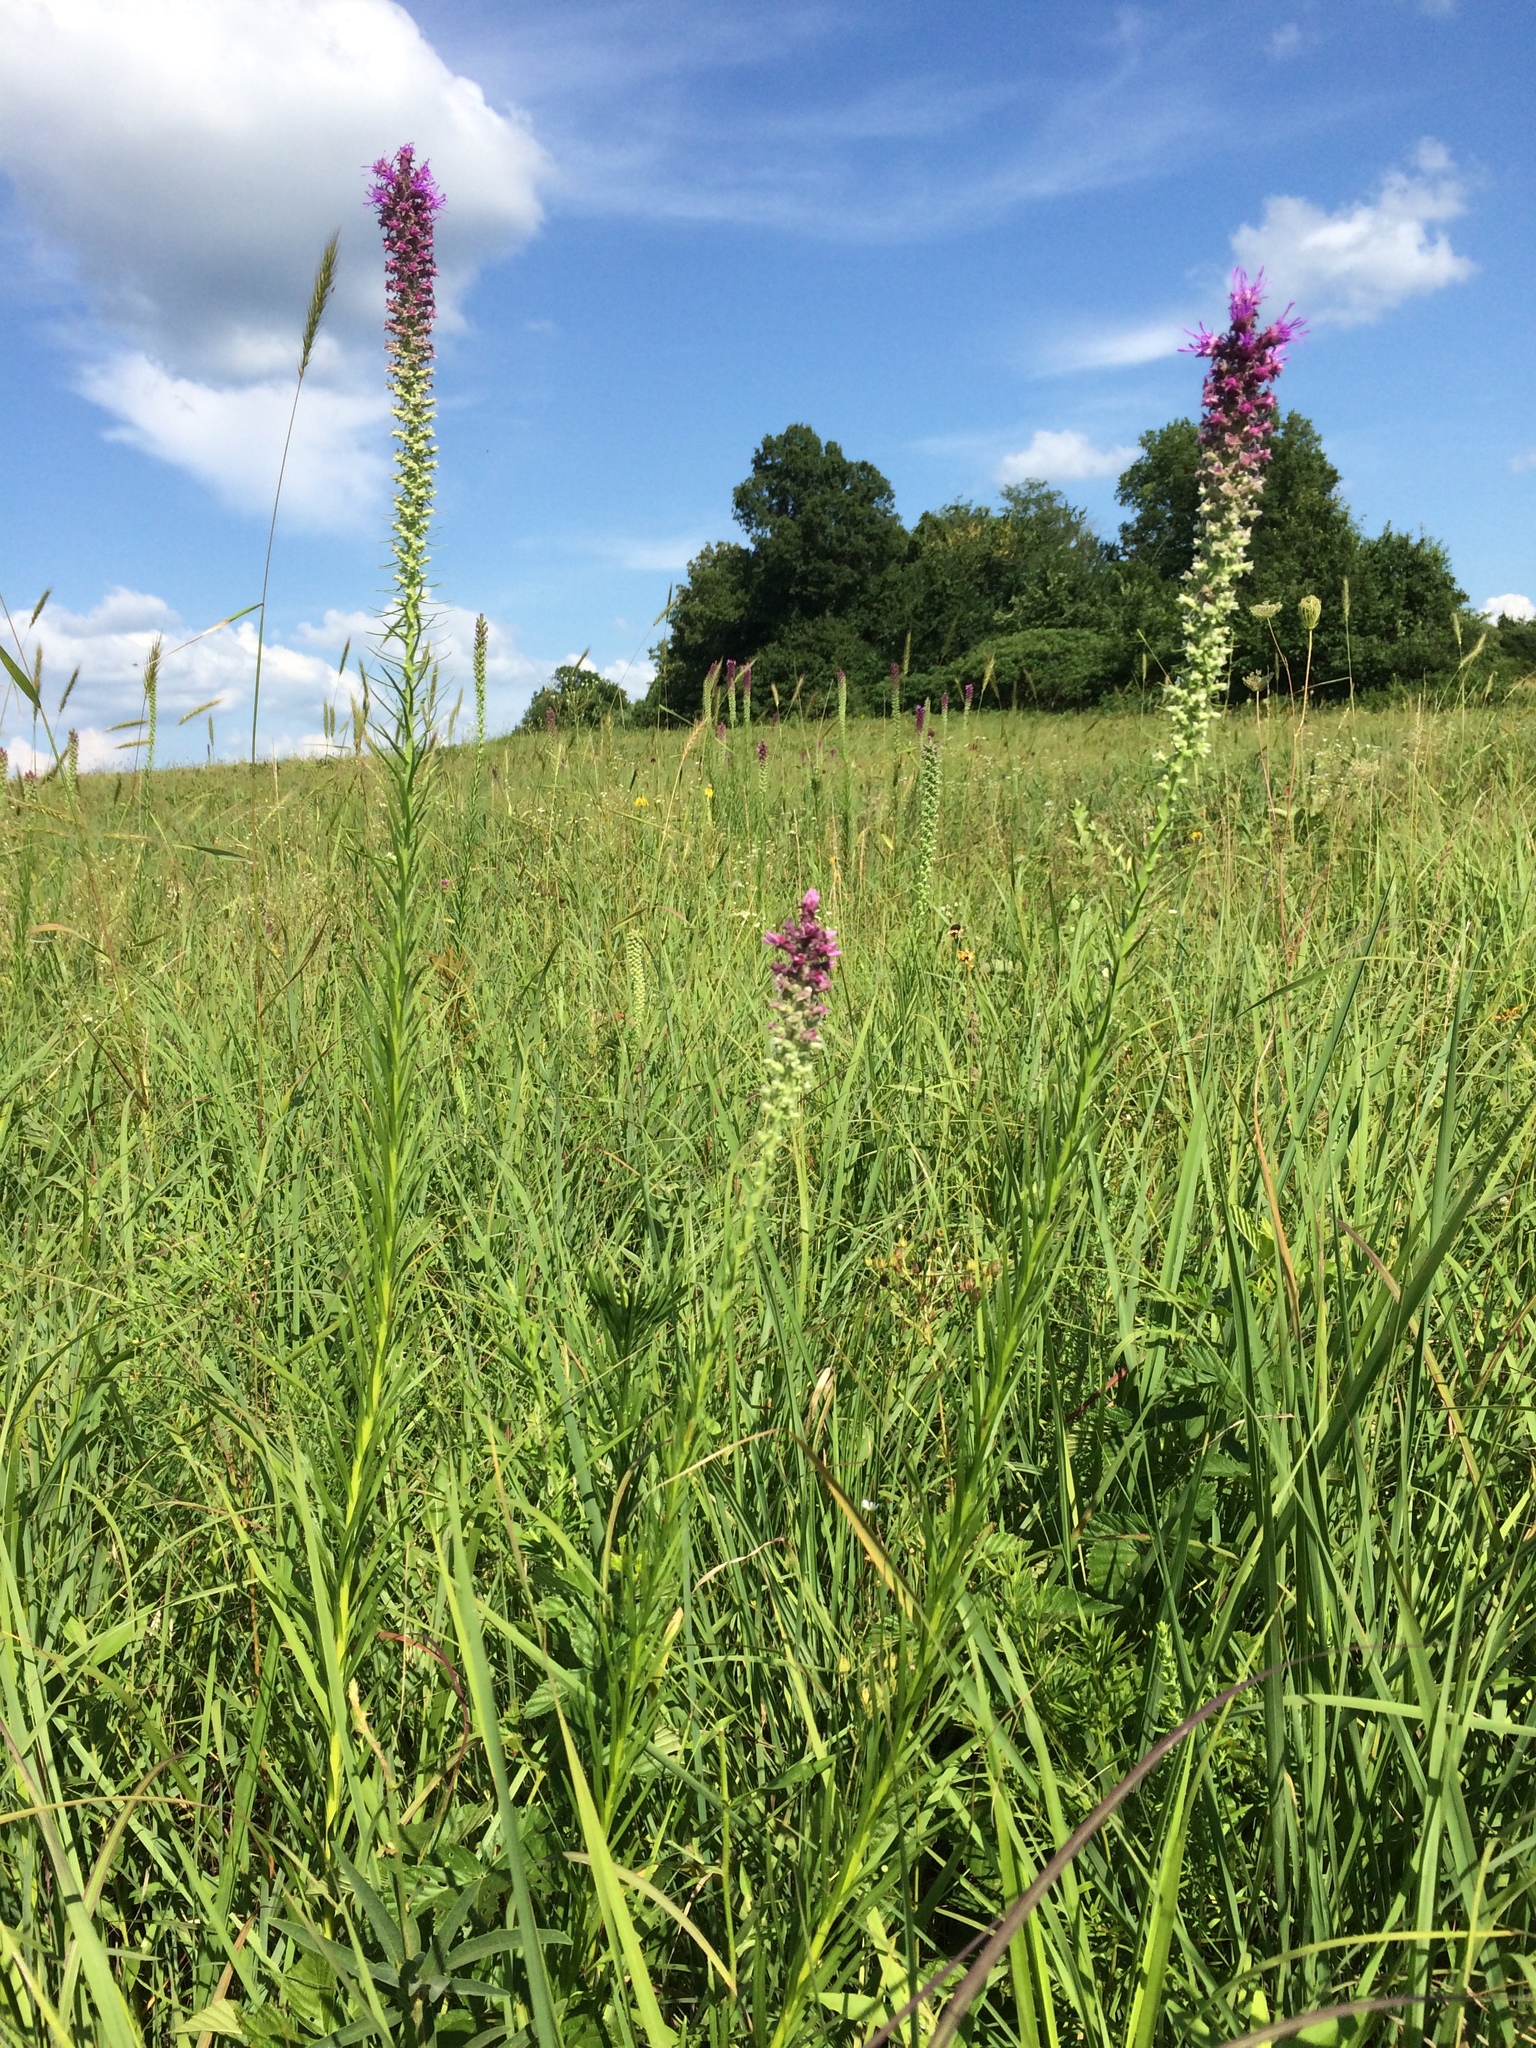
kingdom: Plantae
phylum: Tracheophyta
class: Magnoliopsida
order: Asterales
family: Asteraceae
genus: Liatris
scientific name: Liatris pycnostachya
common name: Cattail gayfeather
